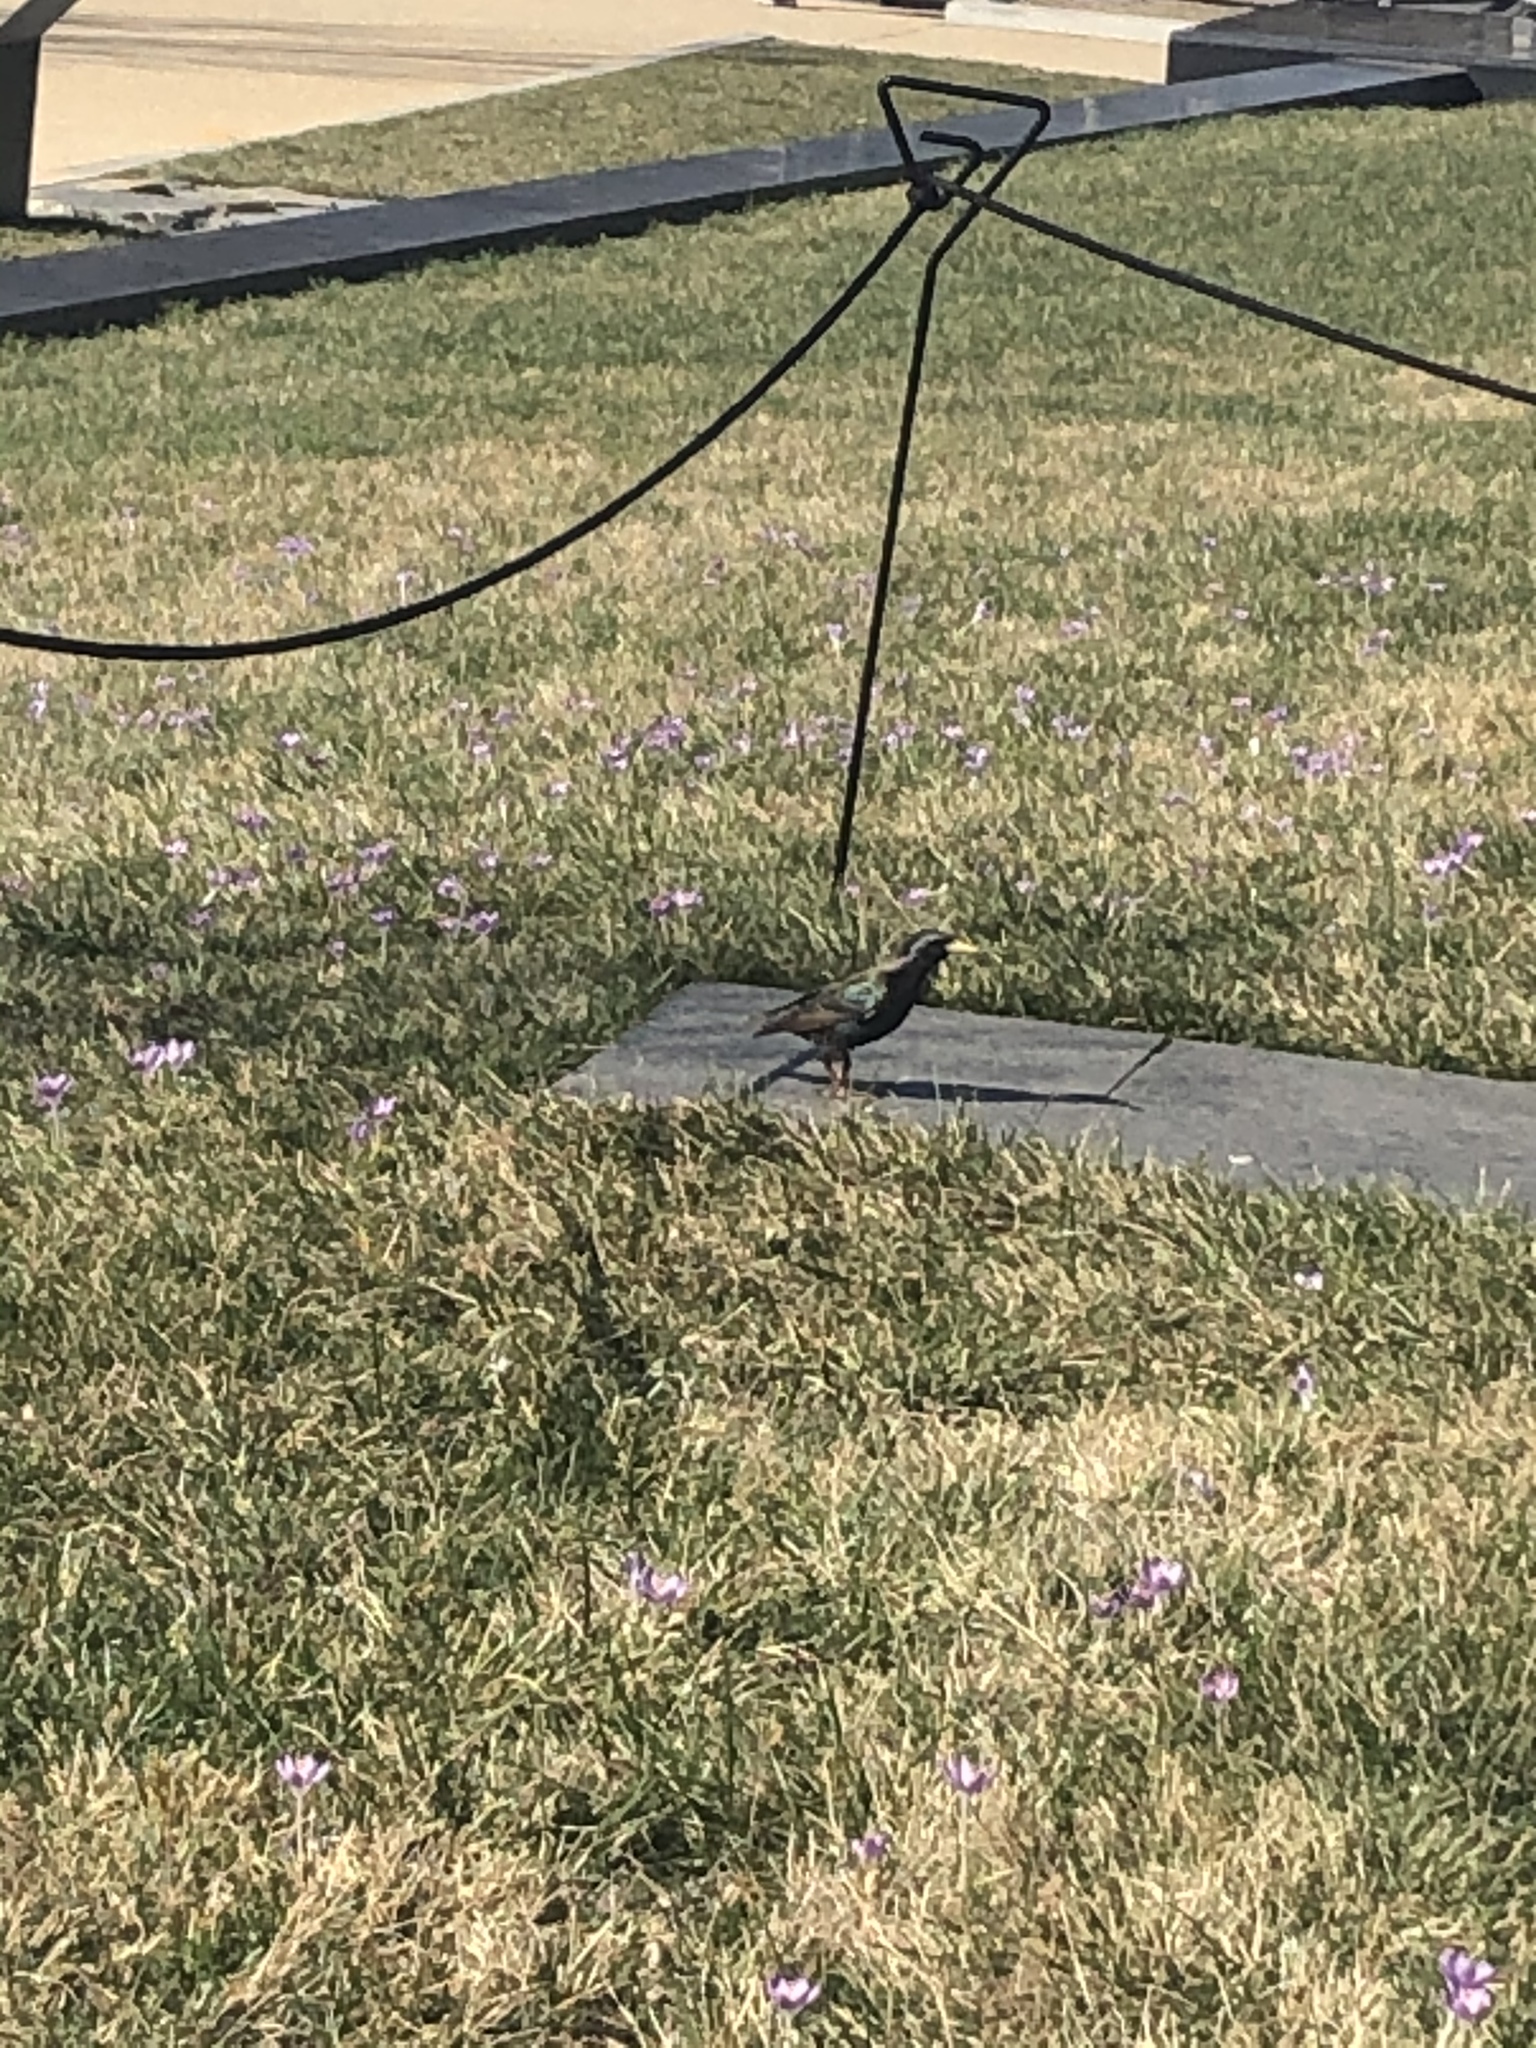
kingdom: Animalia
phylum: Chordata
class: Aves
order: Passeriformes
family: Sturnidae
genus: Sturnus
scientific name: Sturnus vulgaris
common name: Common starling
